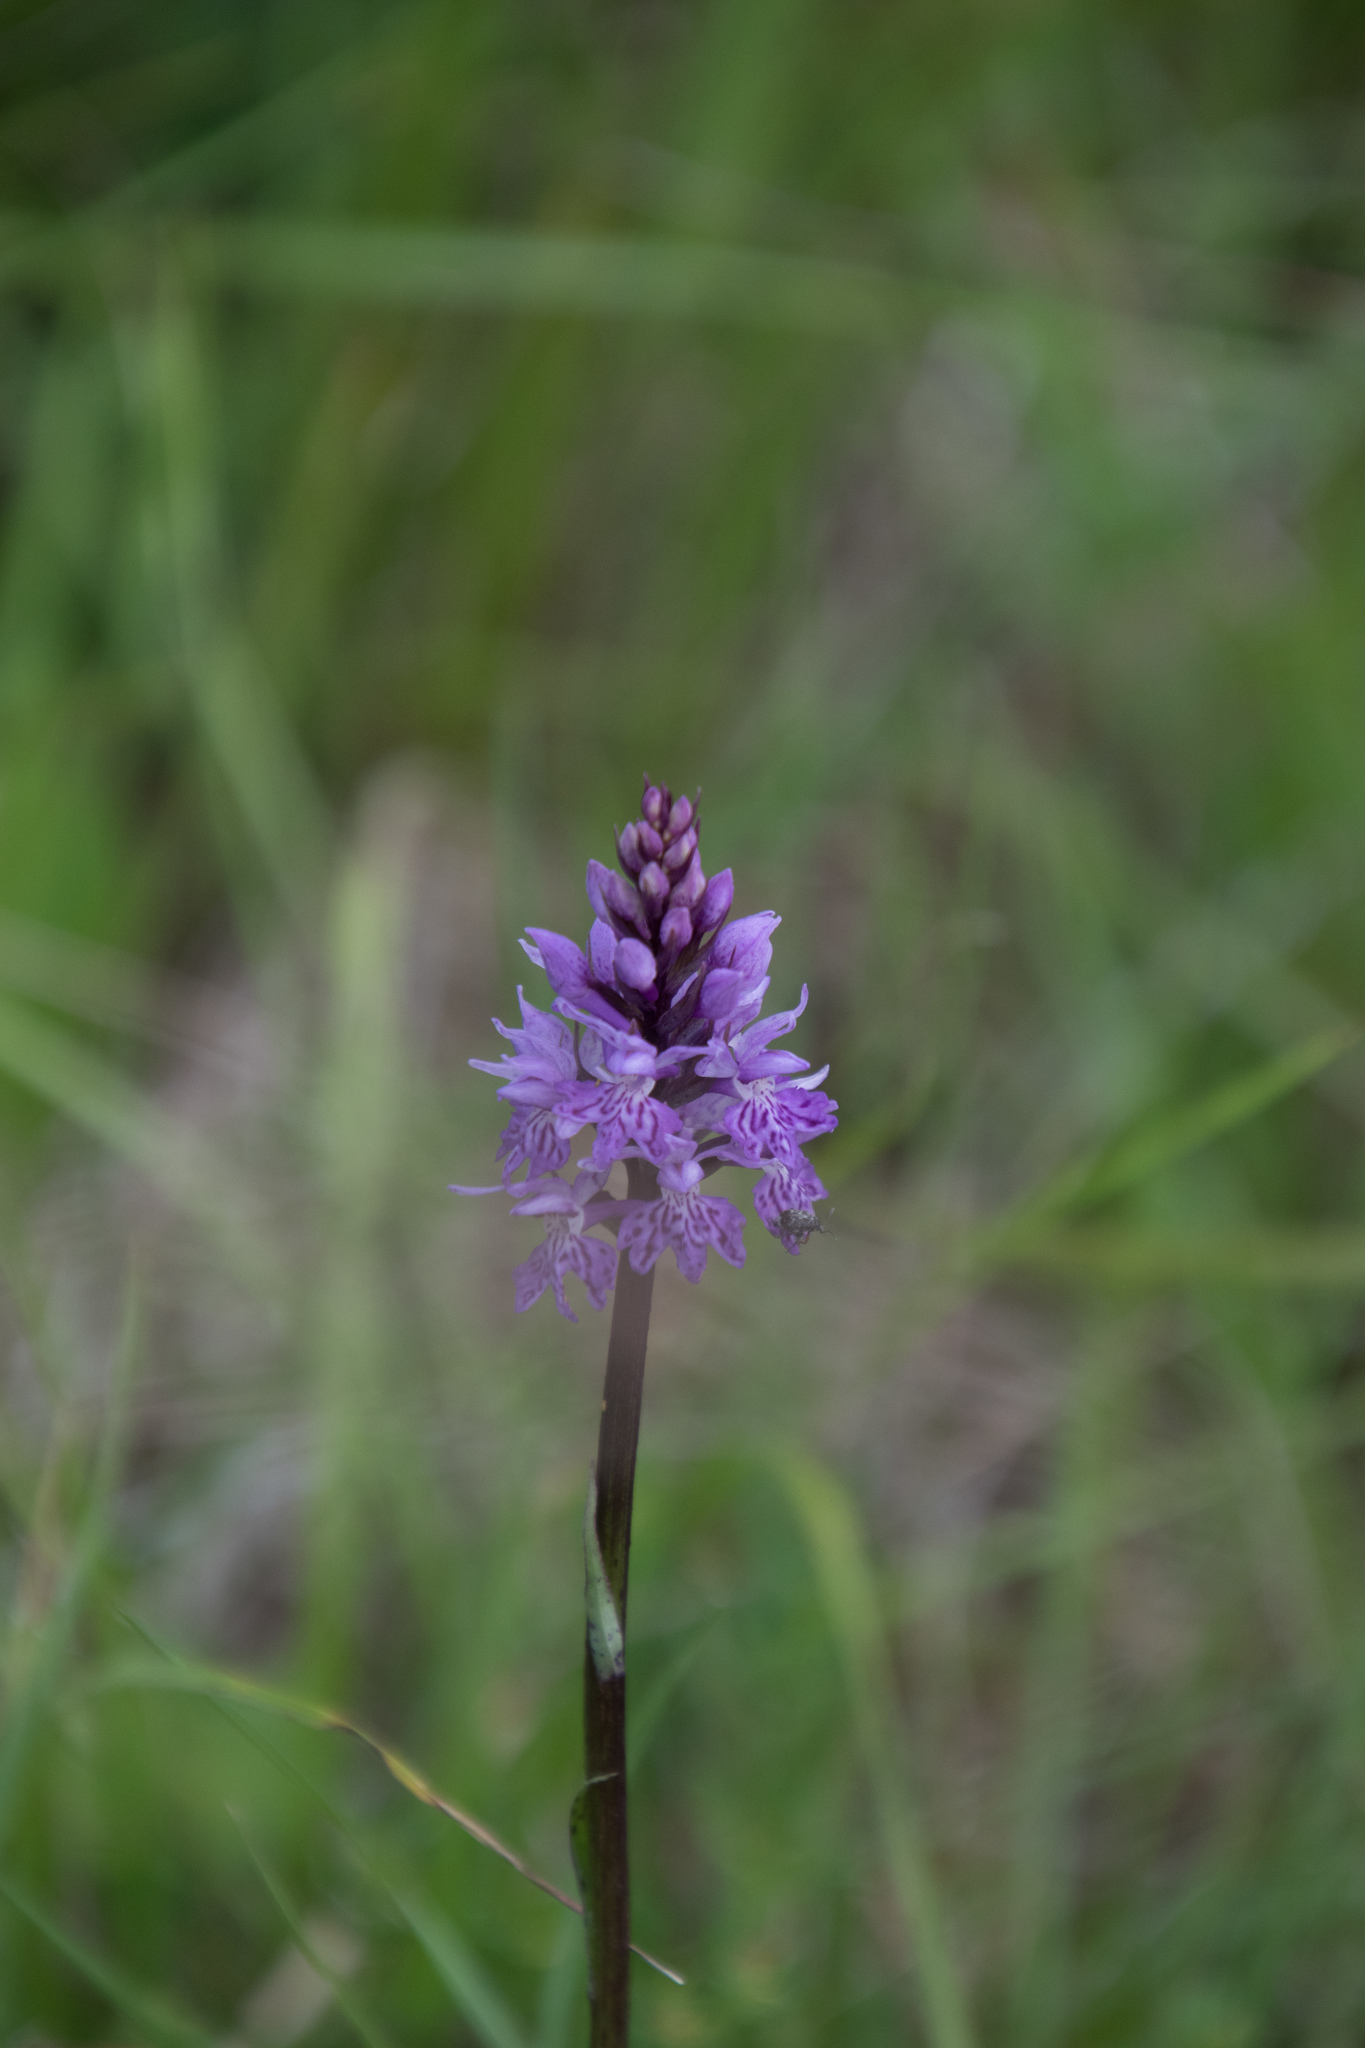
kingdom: Plantae
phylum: Tracheophyta
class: Liliopsida
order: Asparagales
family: Orchidaceae
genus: Dactylorhiza
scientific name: Dactylorhiza maculata
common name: Heath spotted-orchid
